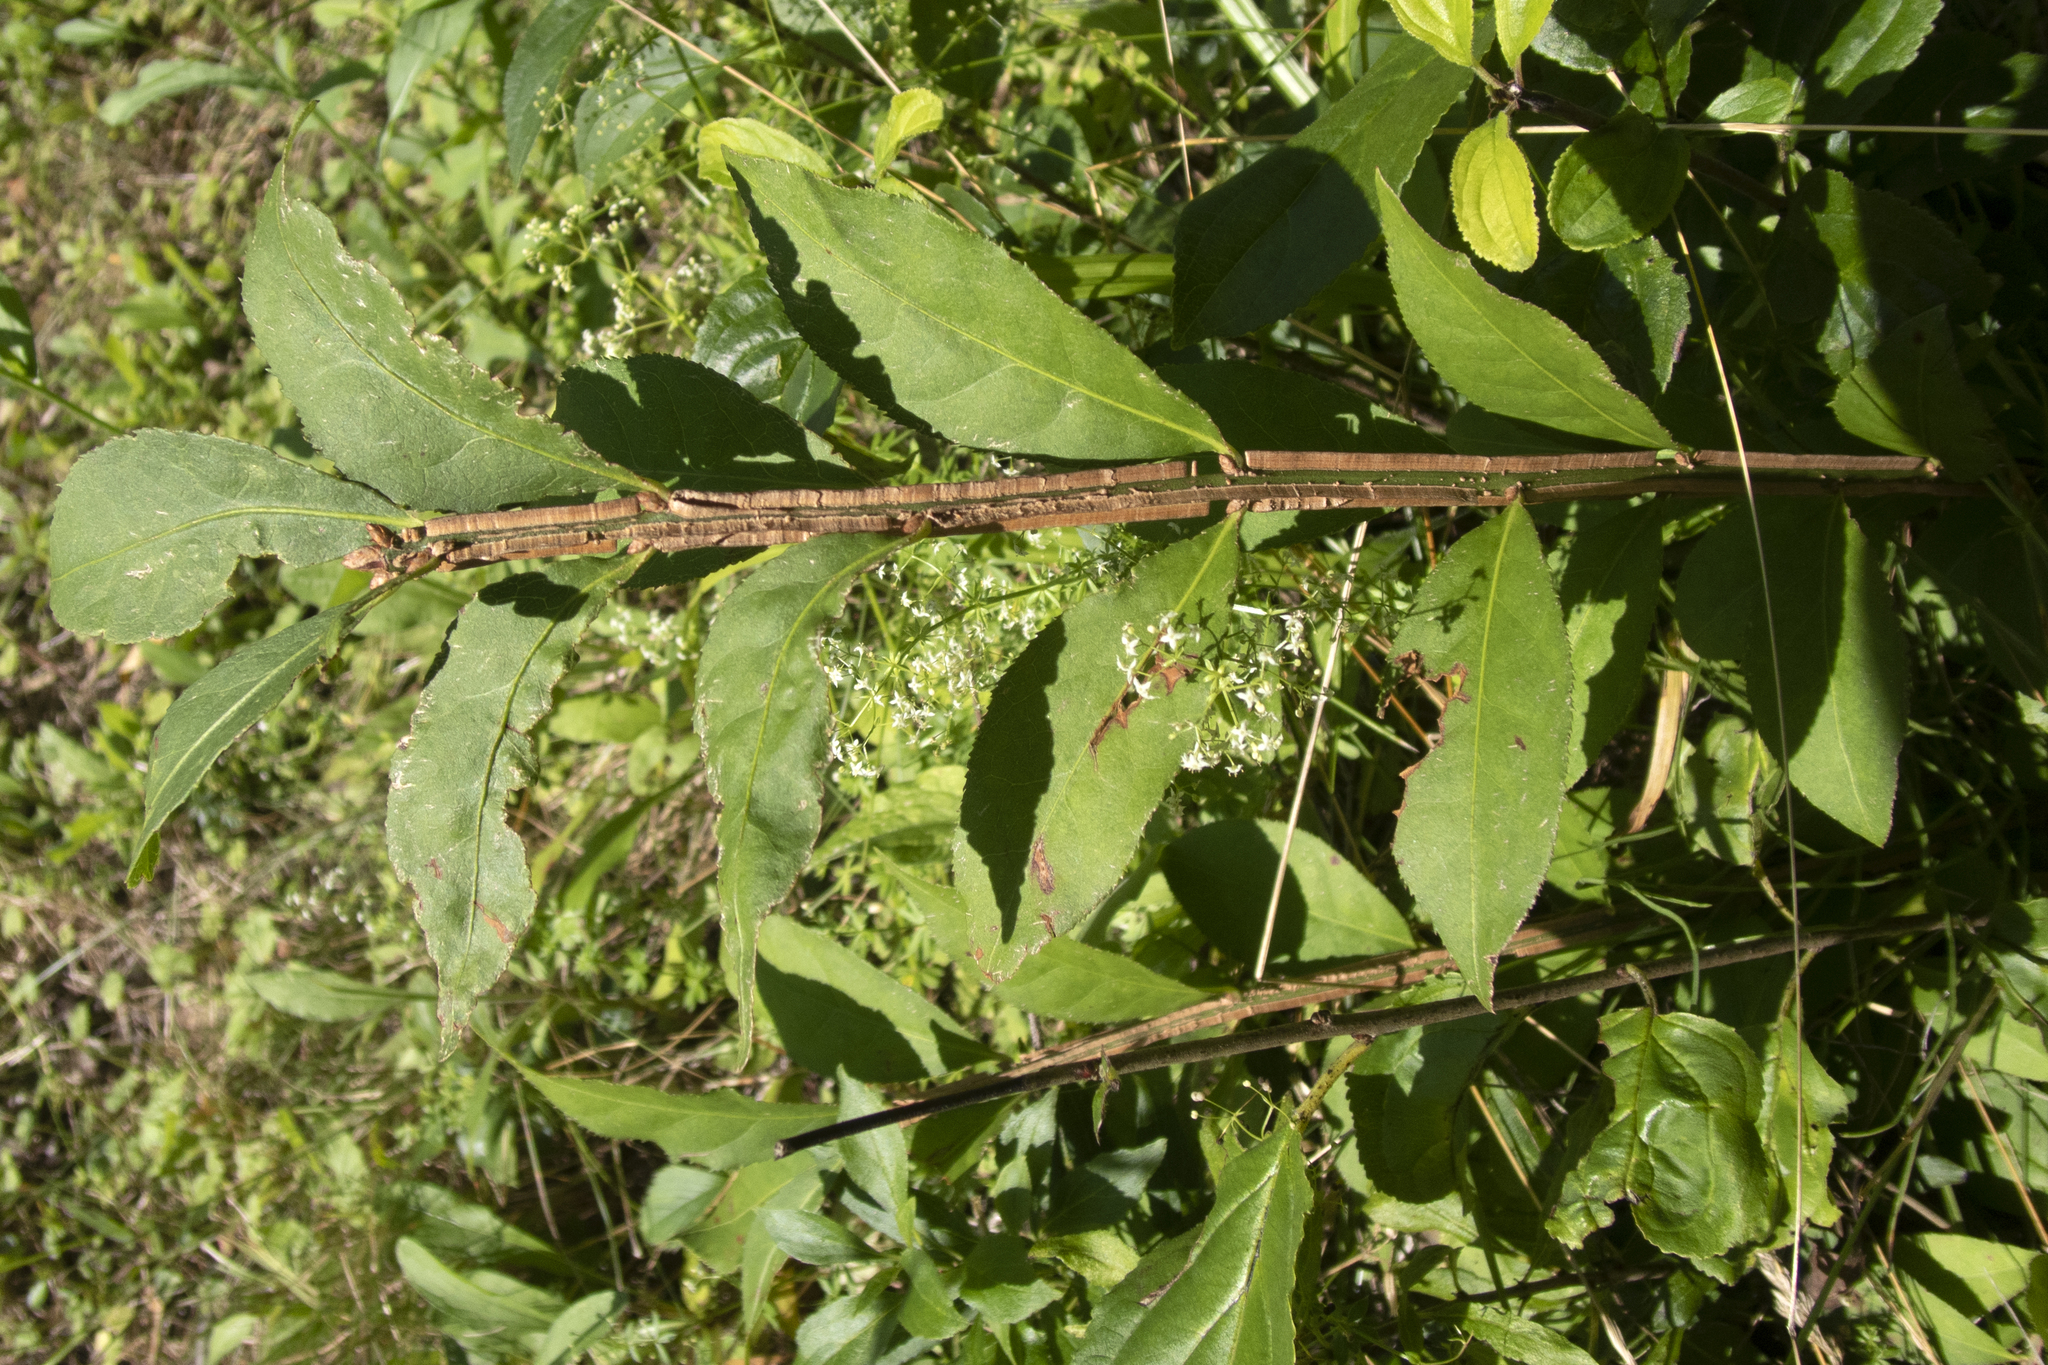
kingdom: Plantae
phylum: Tracheophyta
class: Magnoliopsida
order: Celastrales
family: Celastraceae
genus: Euonymus
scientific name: Euonymus alatus
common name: Winged euonymus
